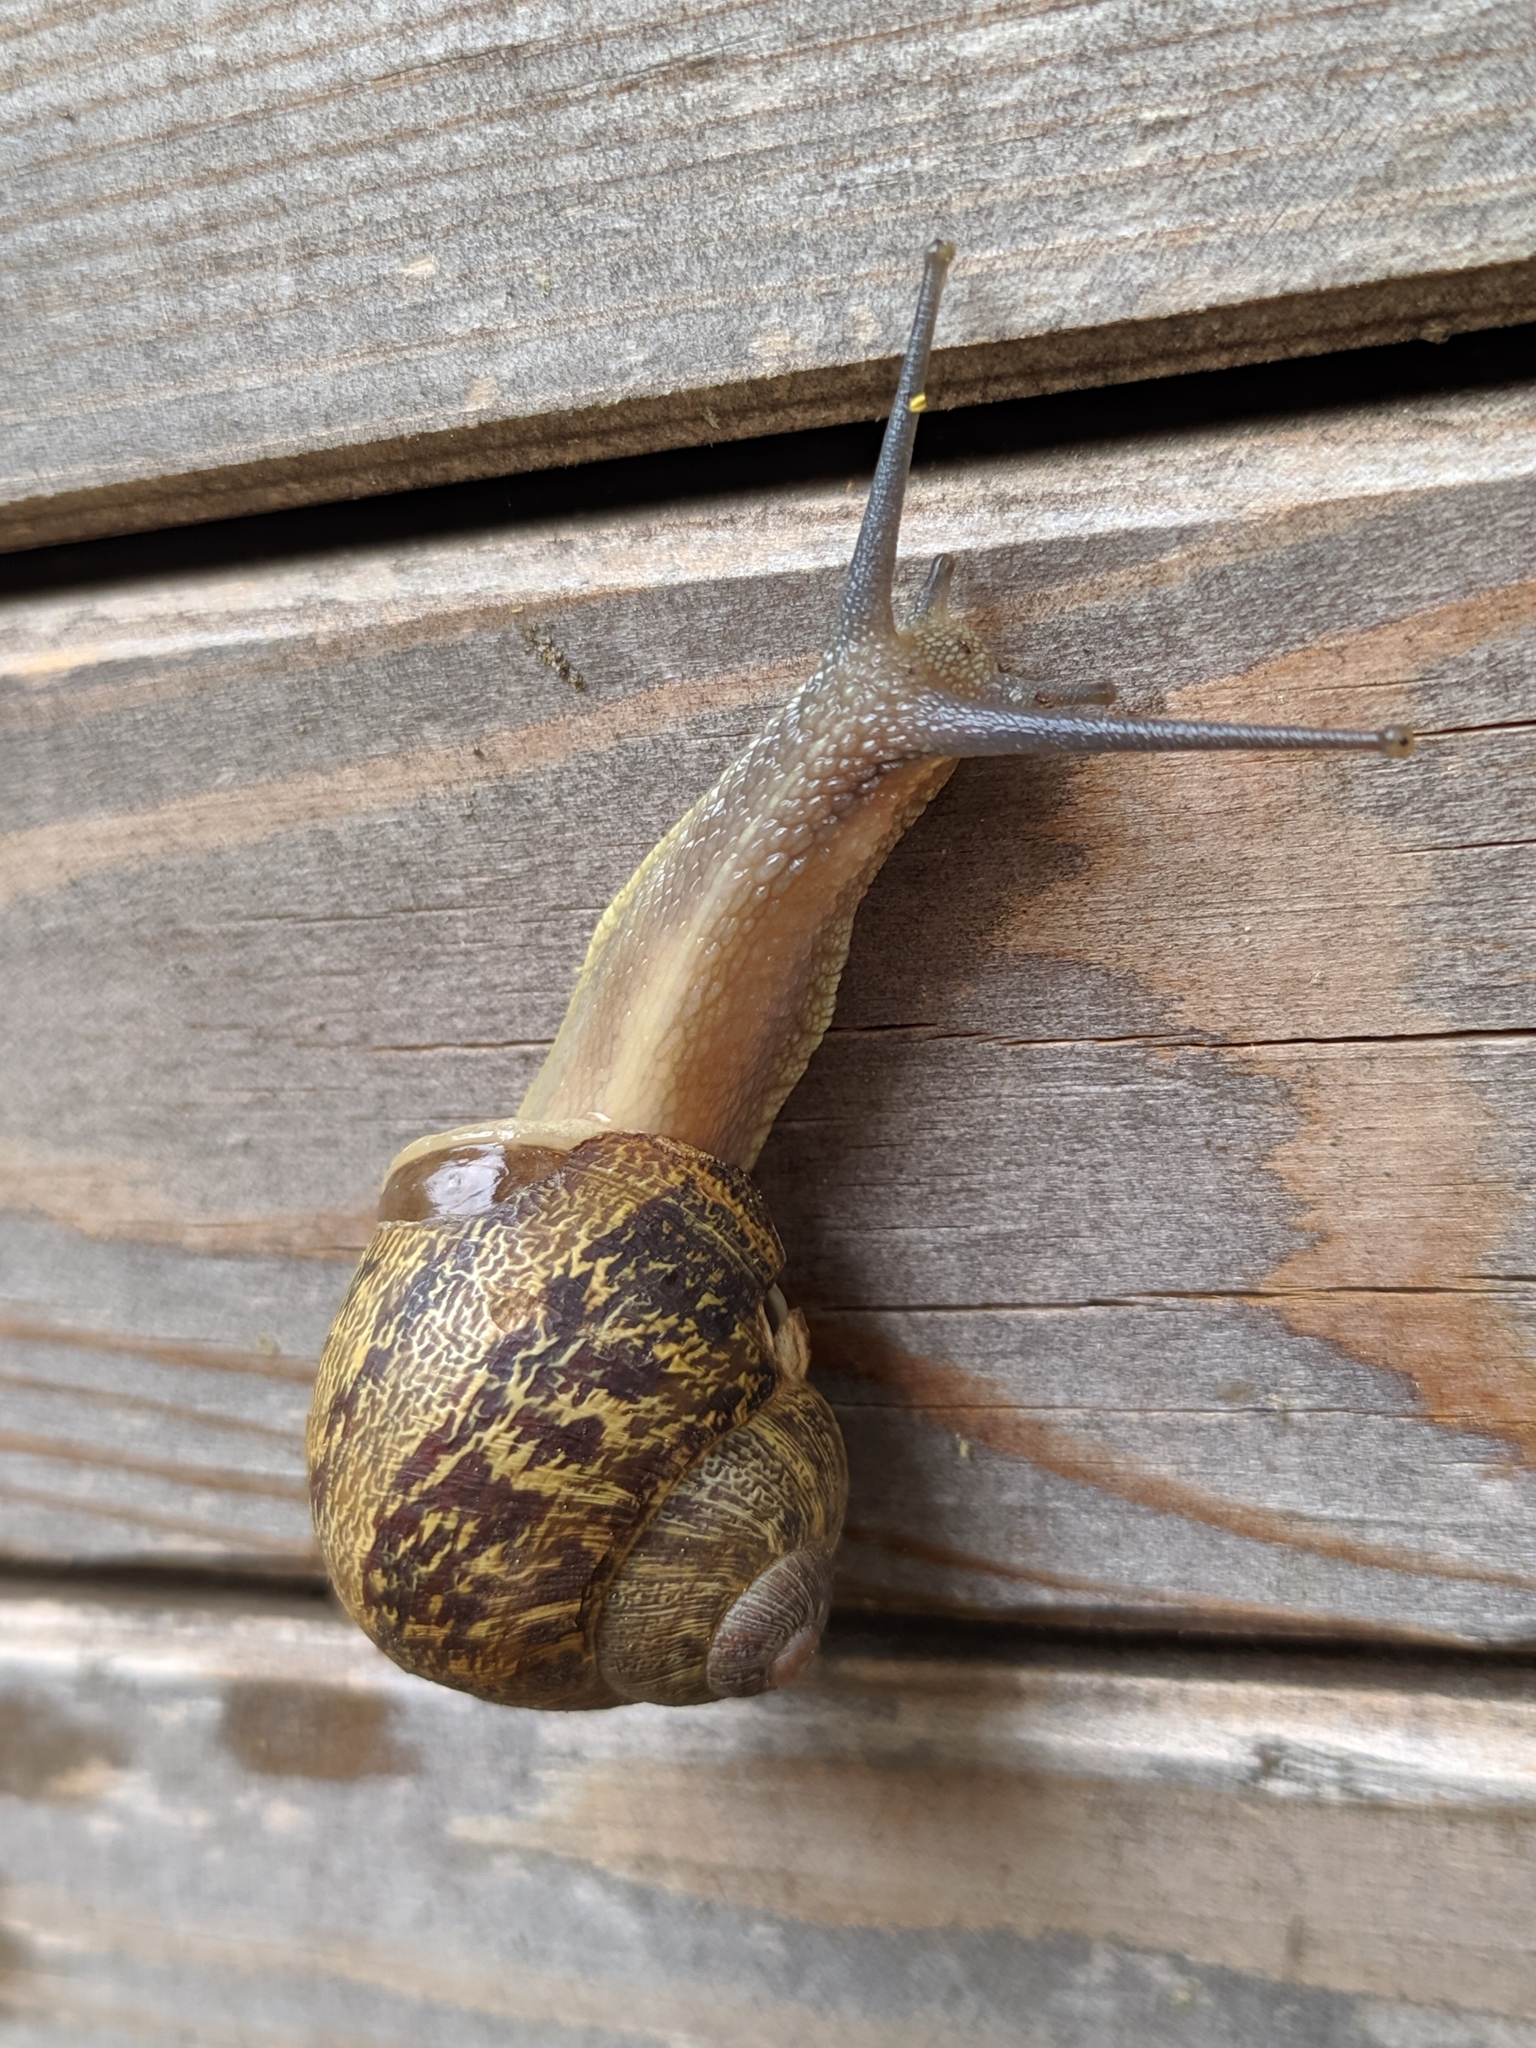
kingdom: Animalia
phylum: Mollusca
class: Gastropoda
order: Stylommatophora
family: Helicidae
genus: Cornu
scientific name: Cornu aspersum
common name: Brown garden snail
